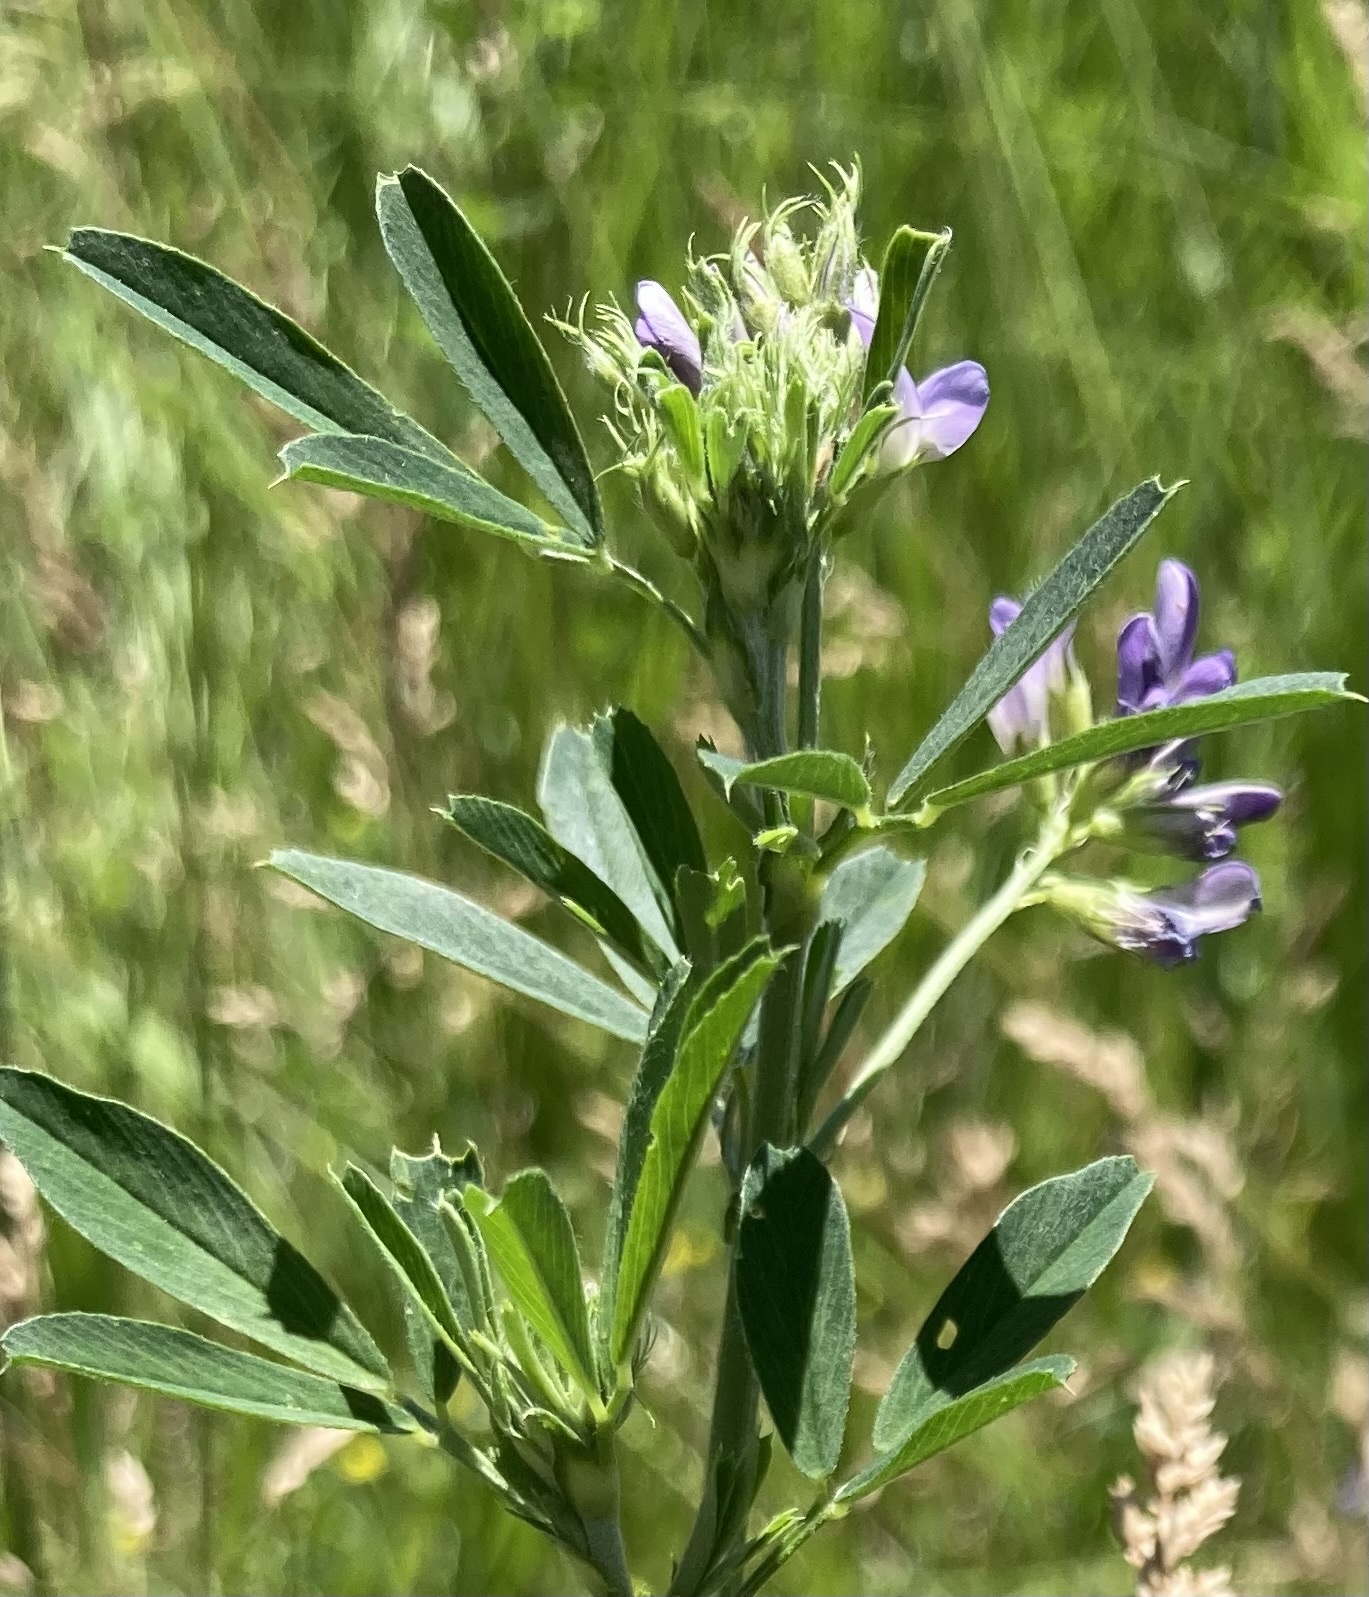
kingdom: Plantae
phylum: Tracheophyta
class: Magnoliopsida
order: Fabales
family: Fabaceae
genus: Medicago
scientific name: Medicago sativa
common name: Alfalfa
